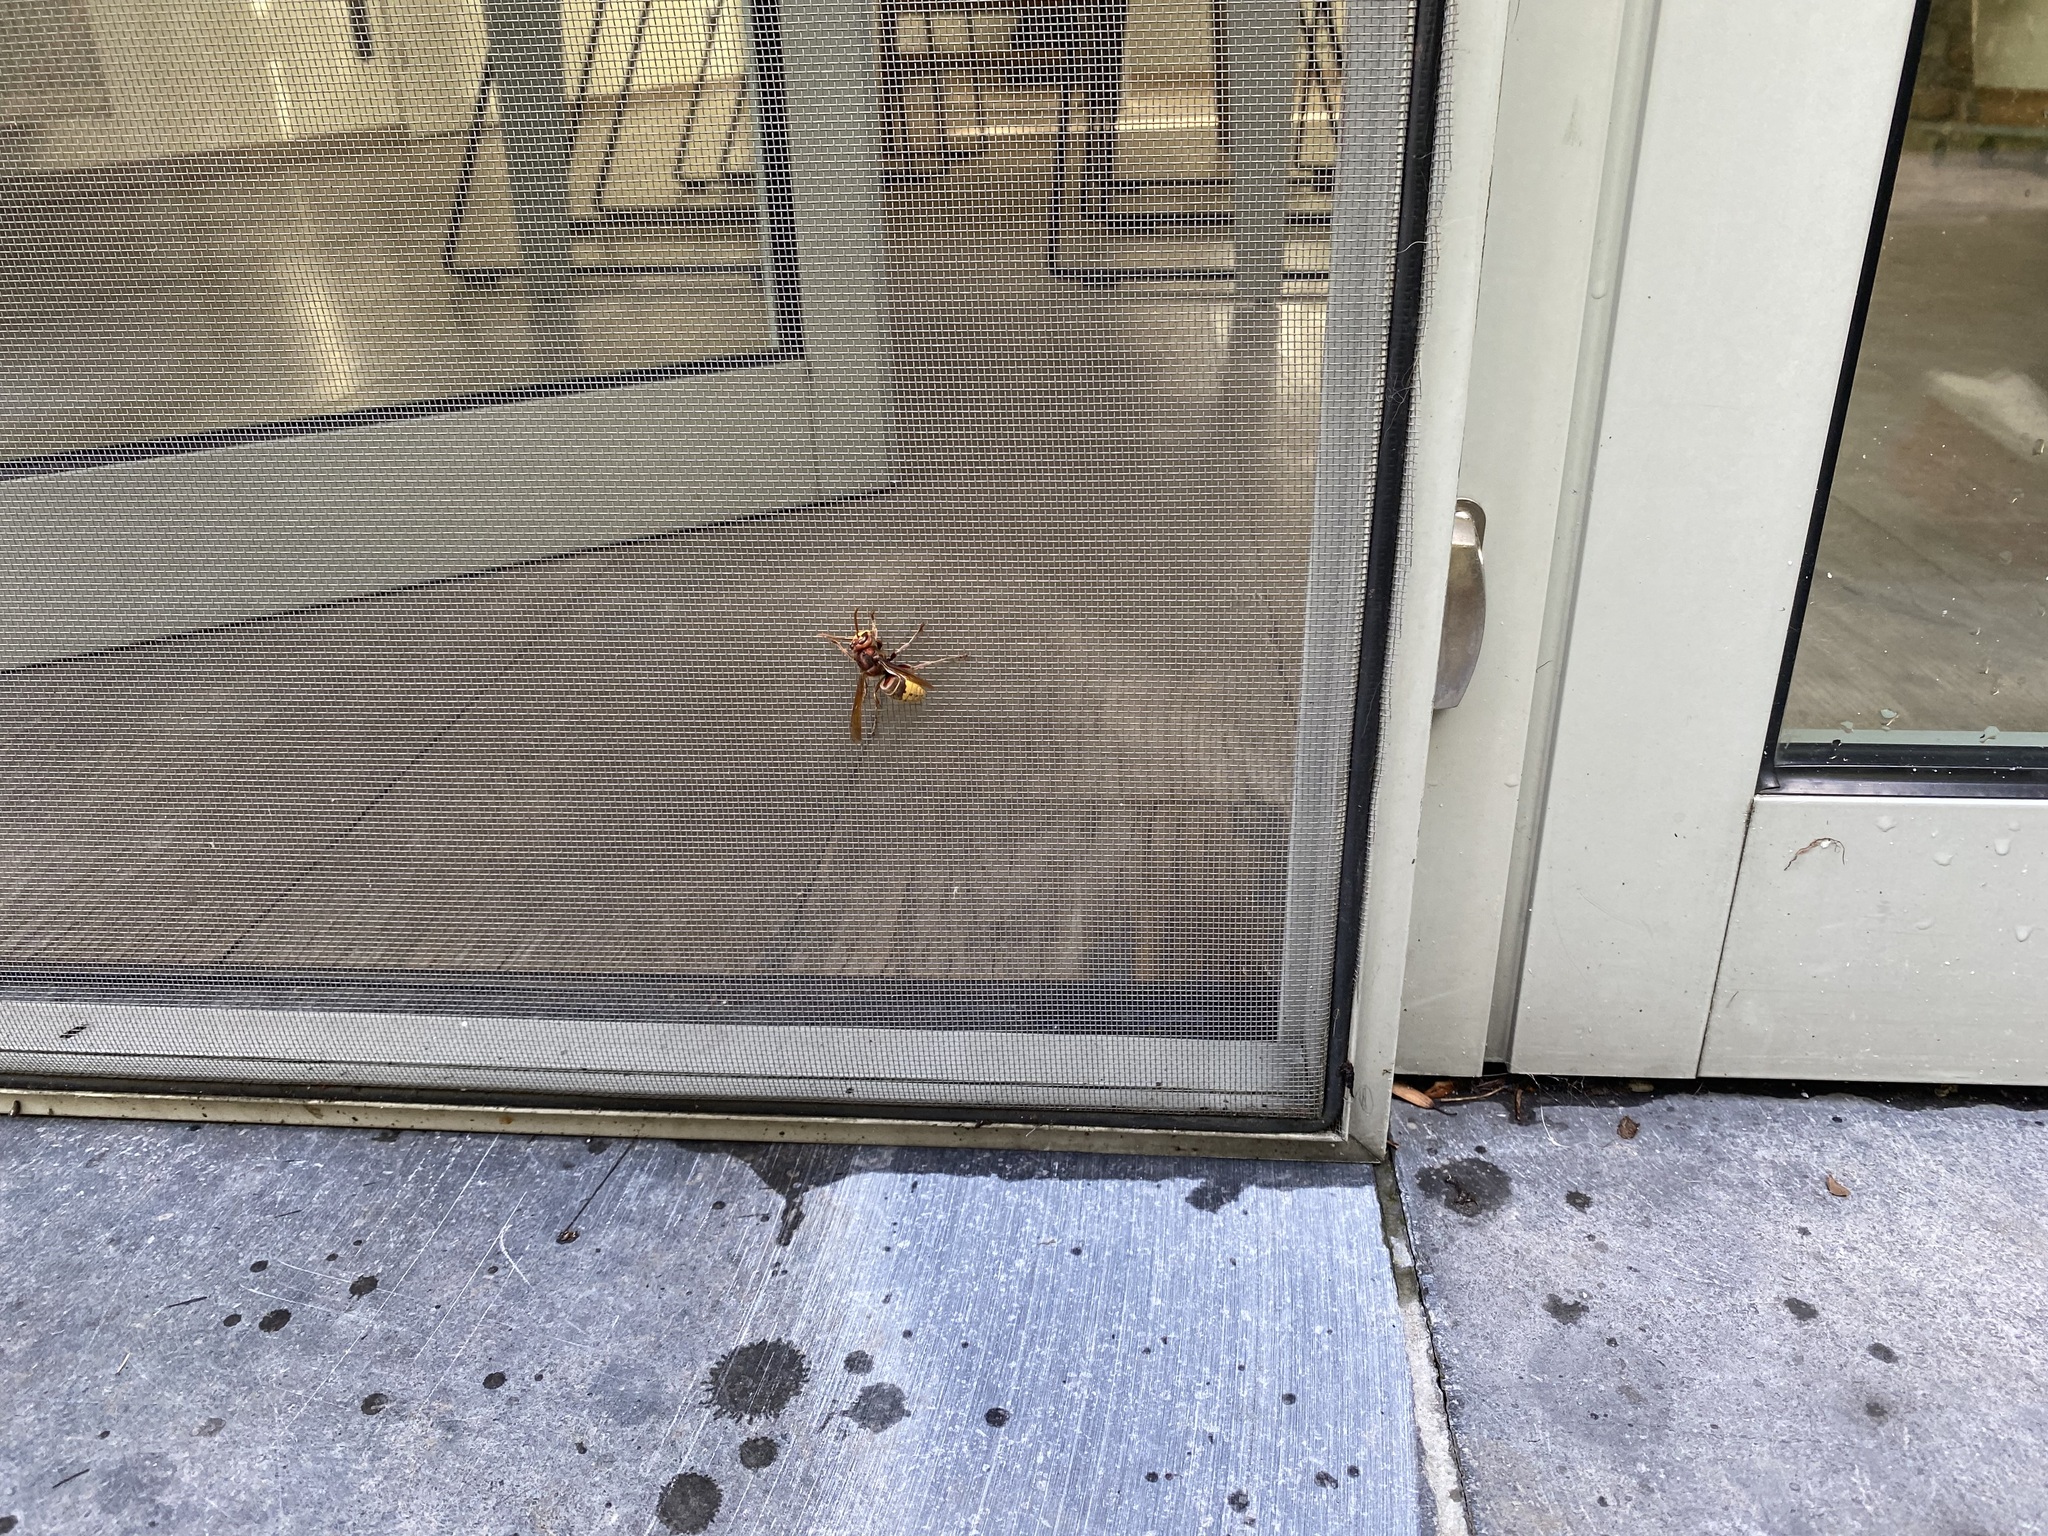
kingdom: Animalia
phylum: Arthropoda
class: Insecta
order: Hymenoptera
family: Vespidae
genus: Vespa
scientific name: Vespa crabro
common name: Hornet
